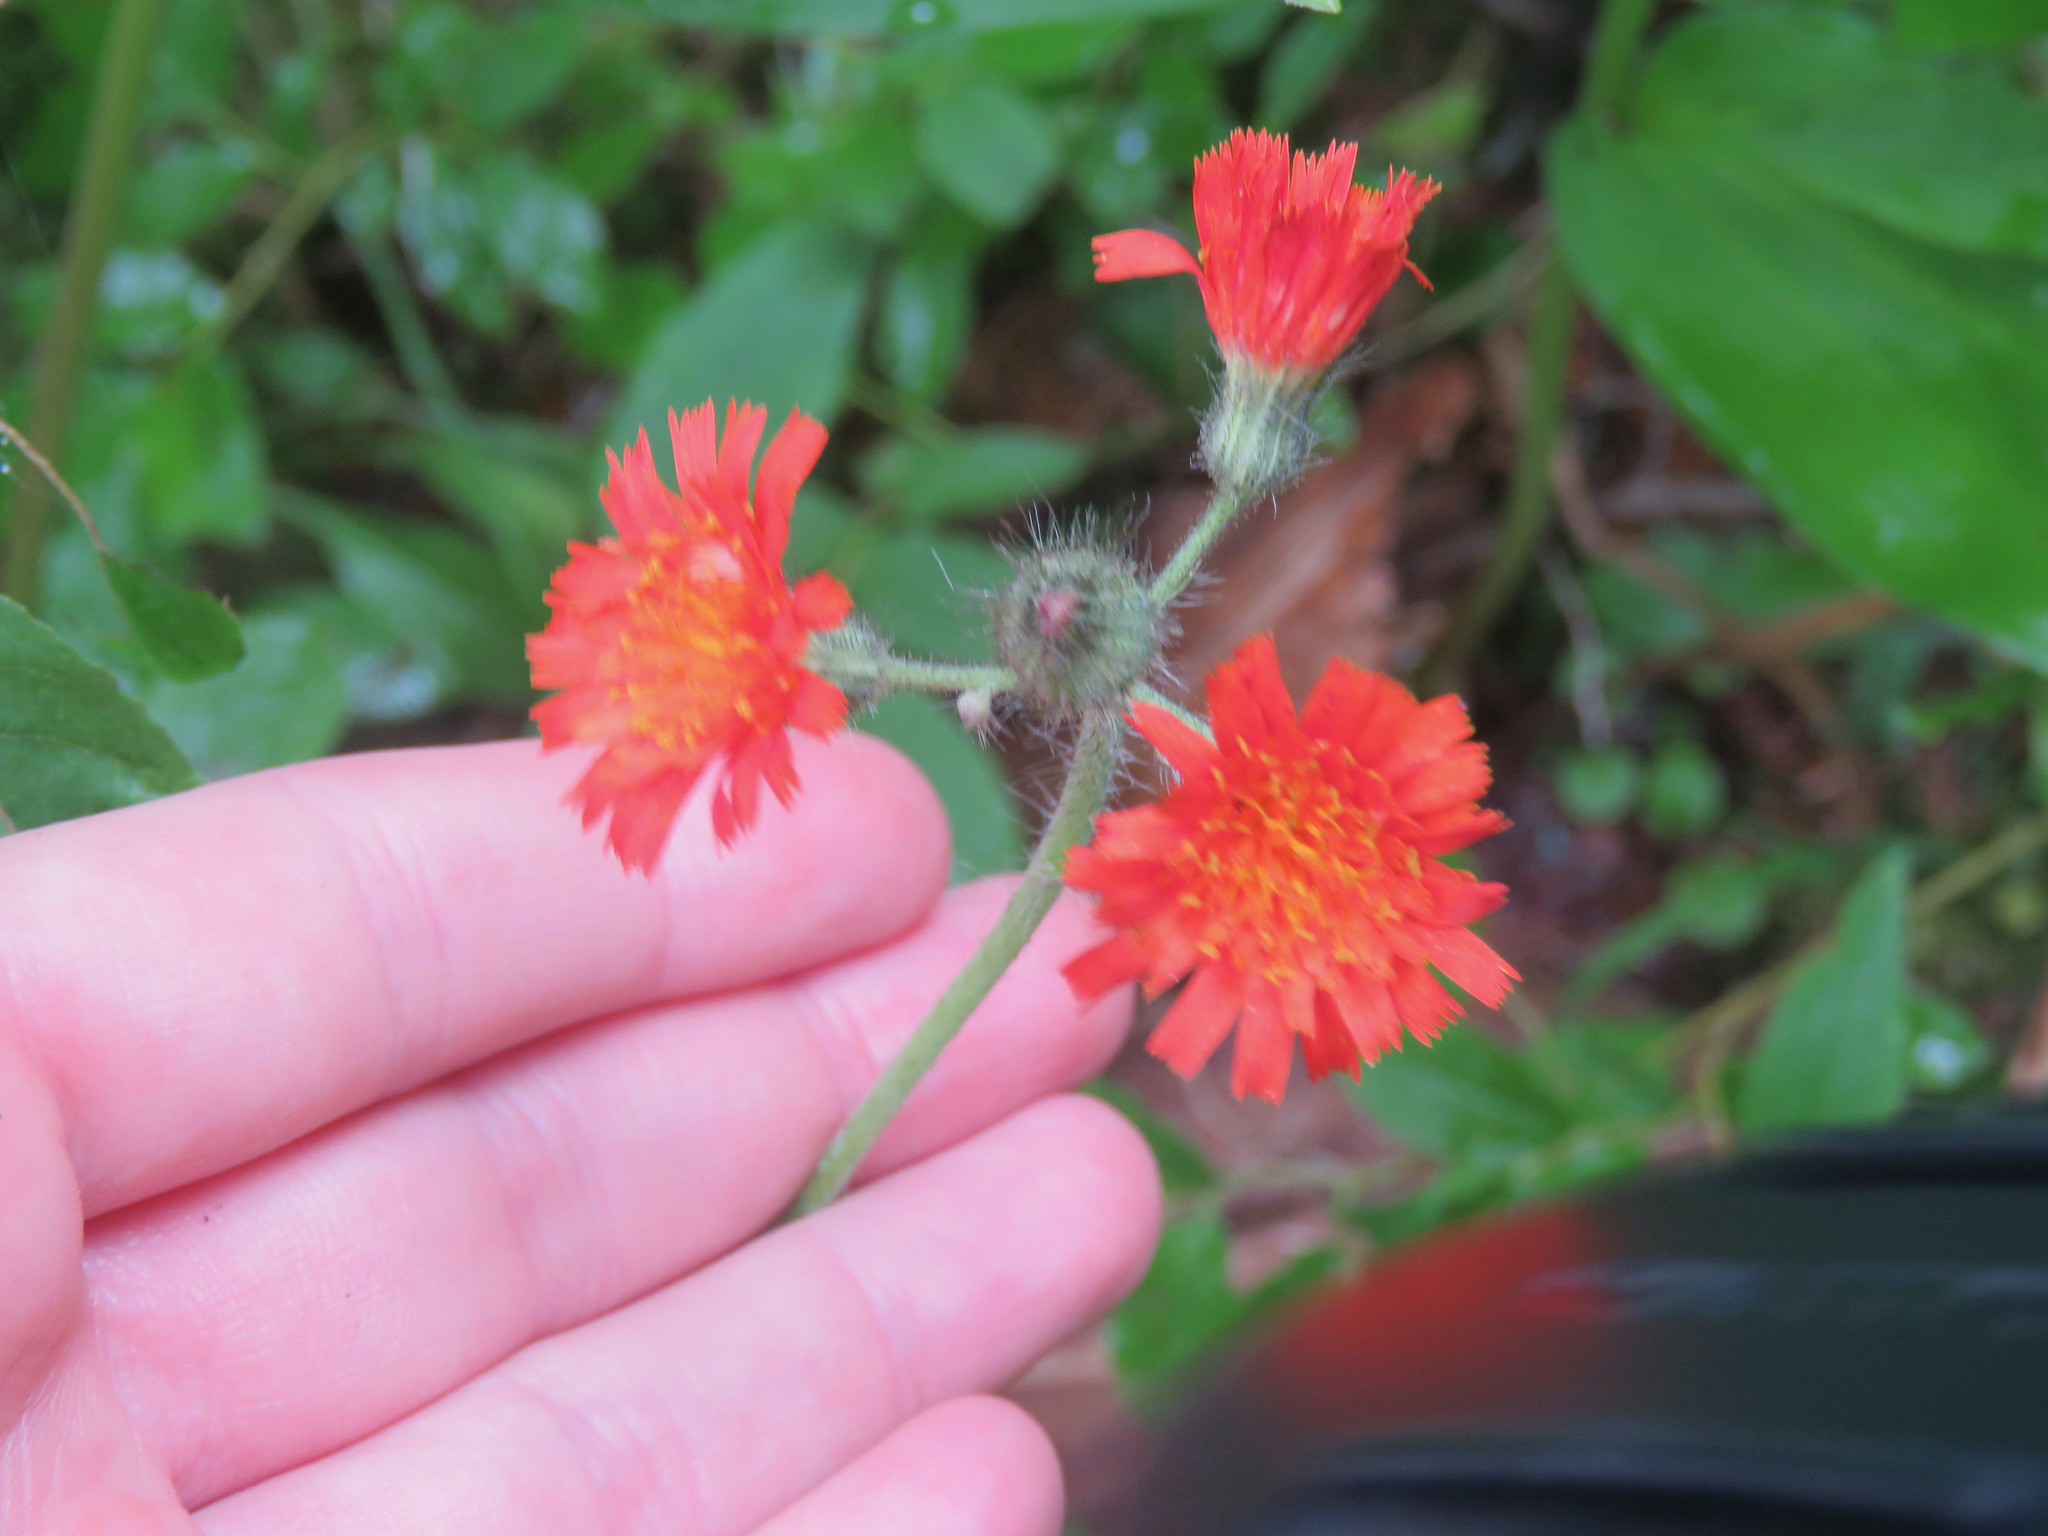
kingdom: Plantae
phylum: Tracheophyta
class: Magnoliopsida
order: Asterales
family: Asteraceae
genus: Pilosella
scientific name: Pilosella aurantiaca
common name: Fox-and-cubs
